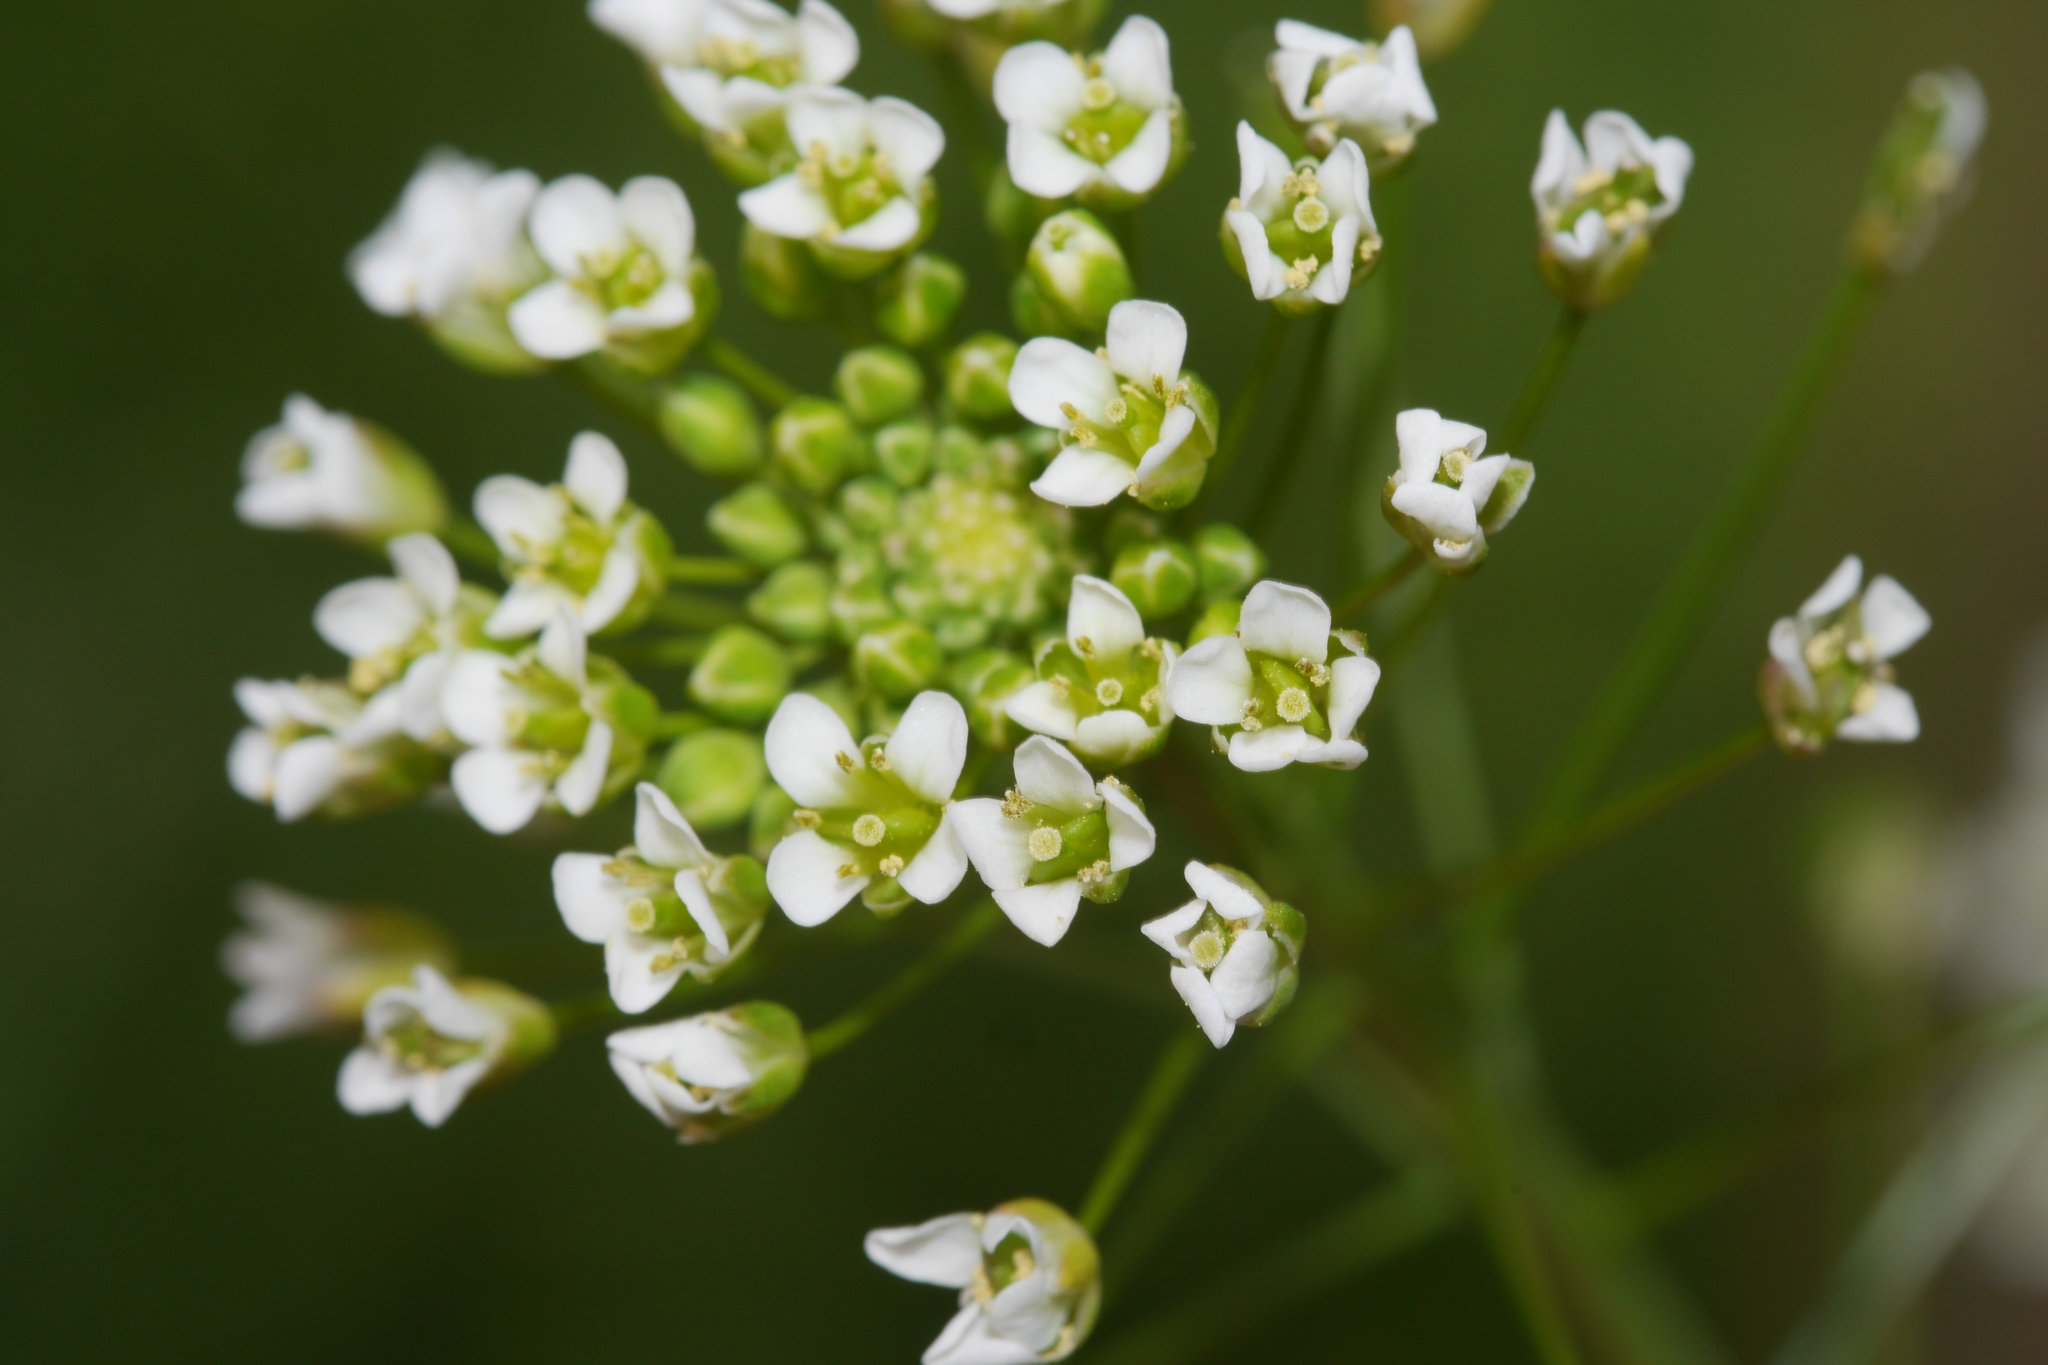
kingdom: Plantae
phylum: Tracheophyta
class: Magnoliopsida
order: Brassicales
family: Brassicaceae
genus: Capsella
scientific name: Capsella bursa-pastoris
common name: Shepherd's purse
